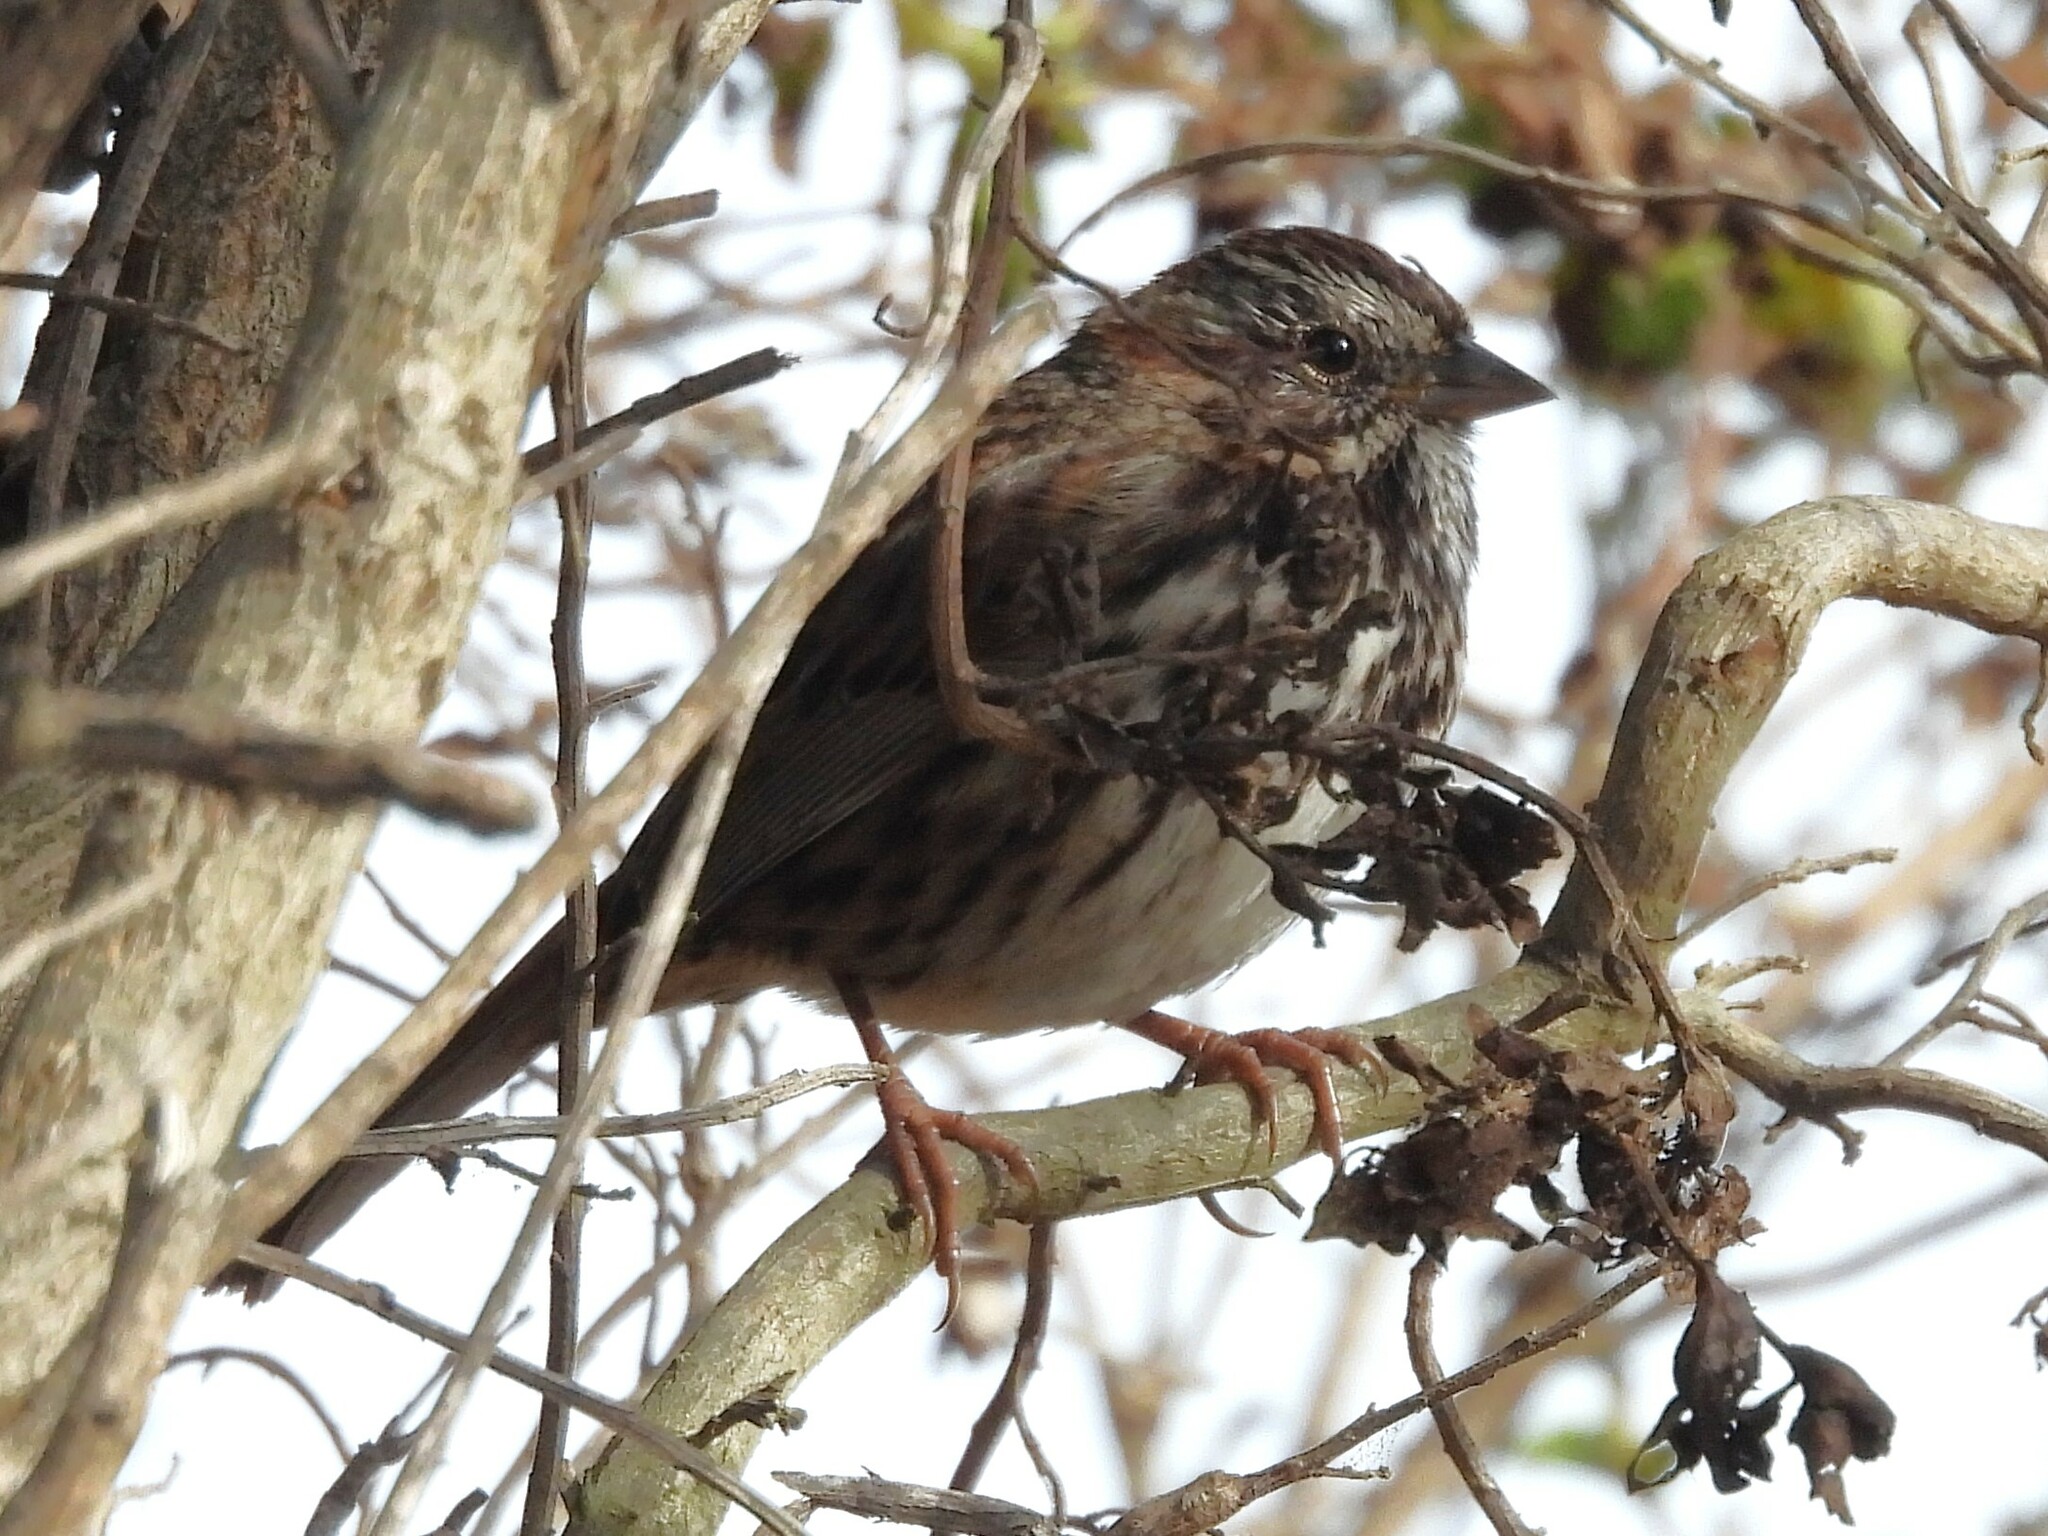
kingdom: Animalia
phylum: Chordata
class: Aves
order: Passeriformes
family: Passerellidae
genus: Melospiza
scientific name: Melospiza melodia
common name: Song sparrow
